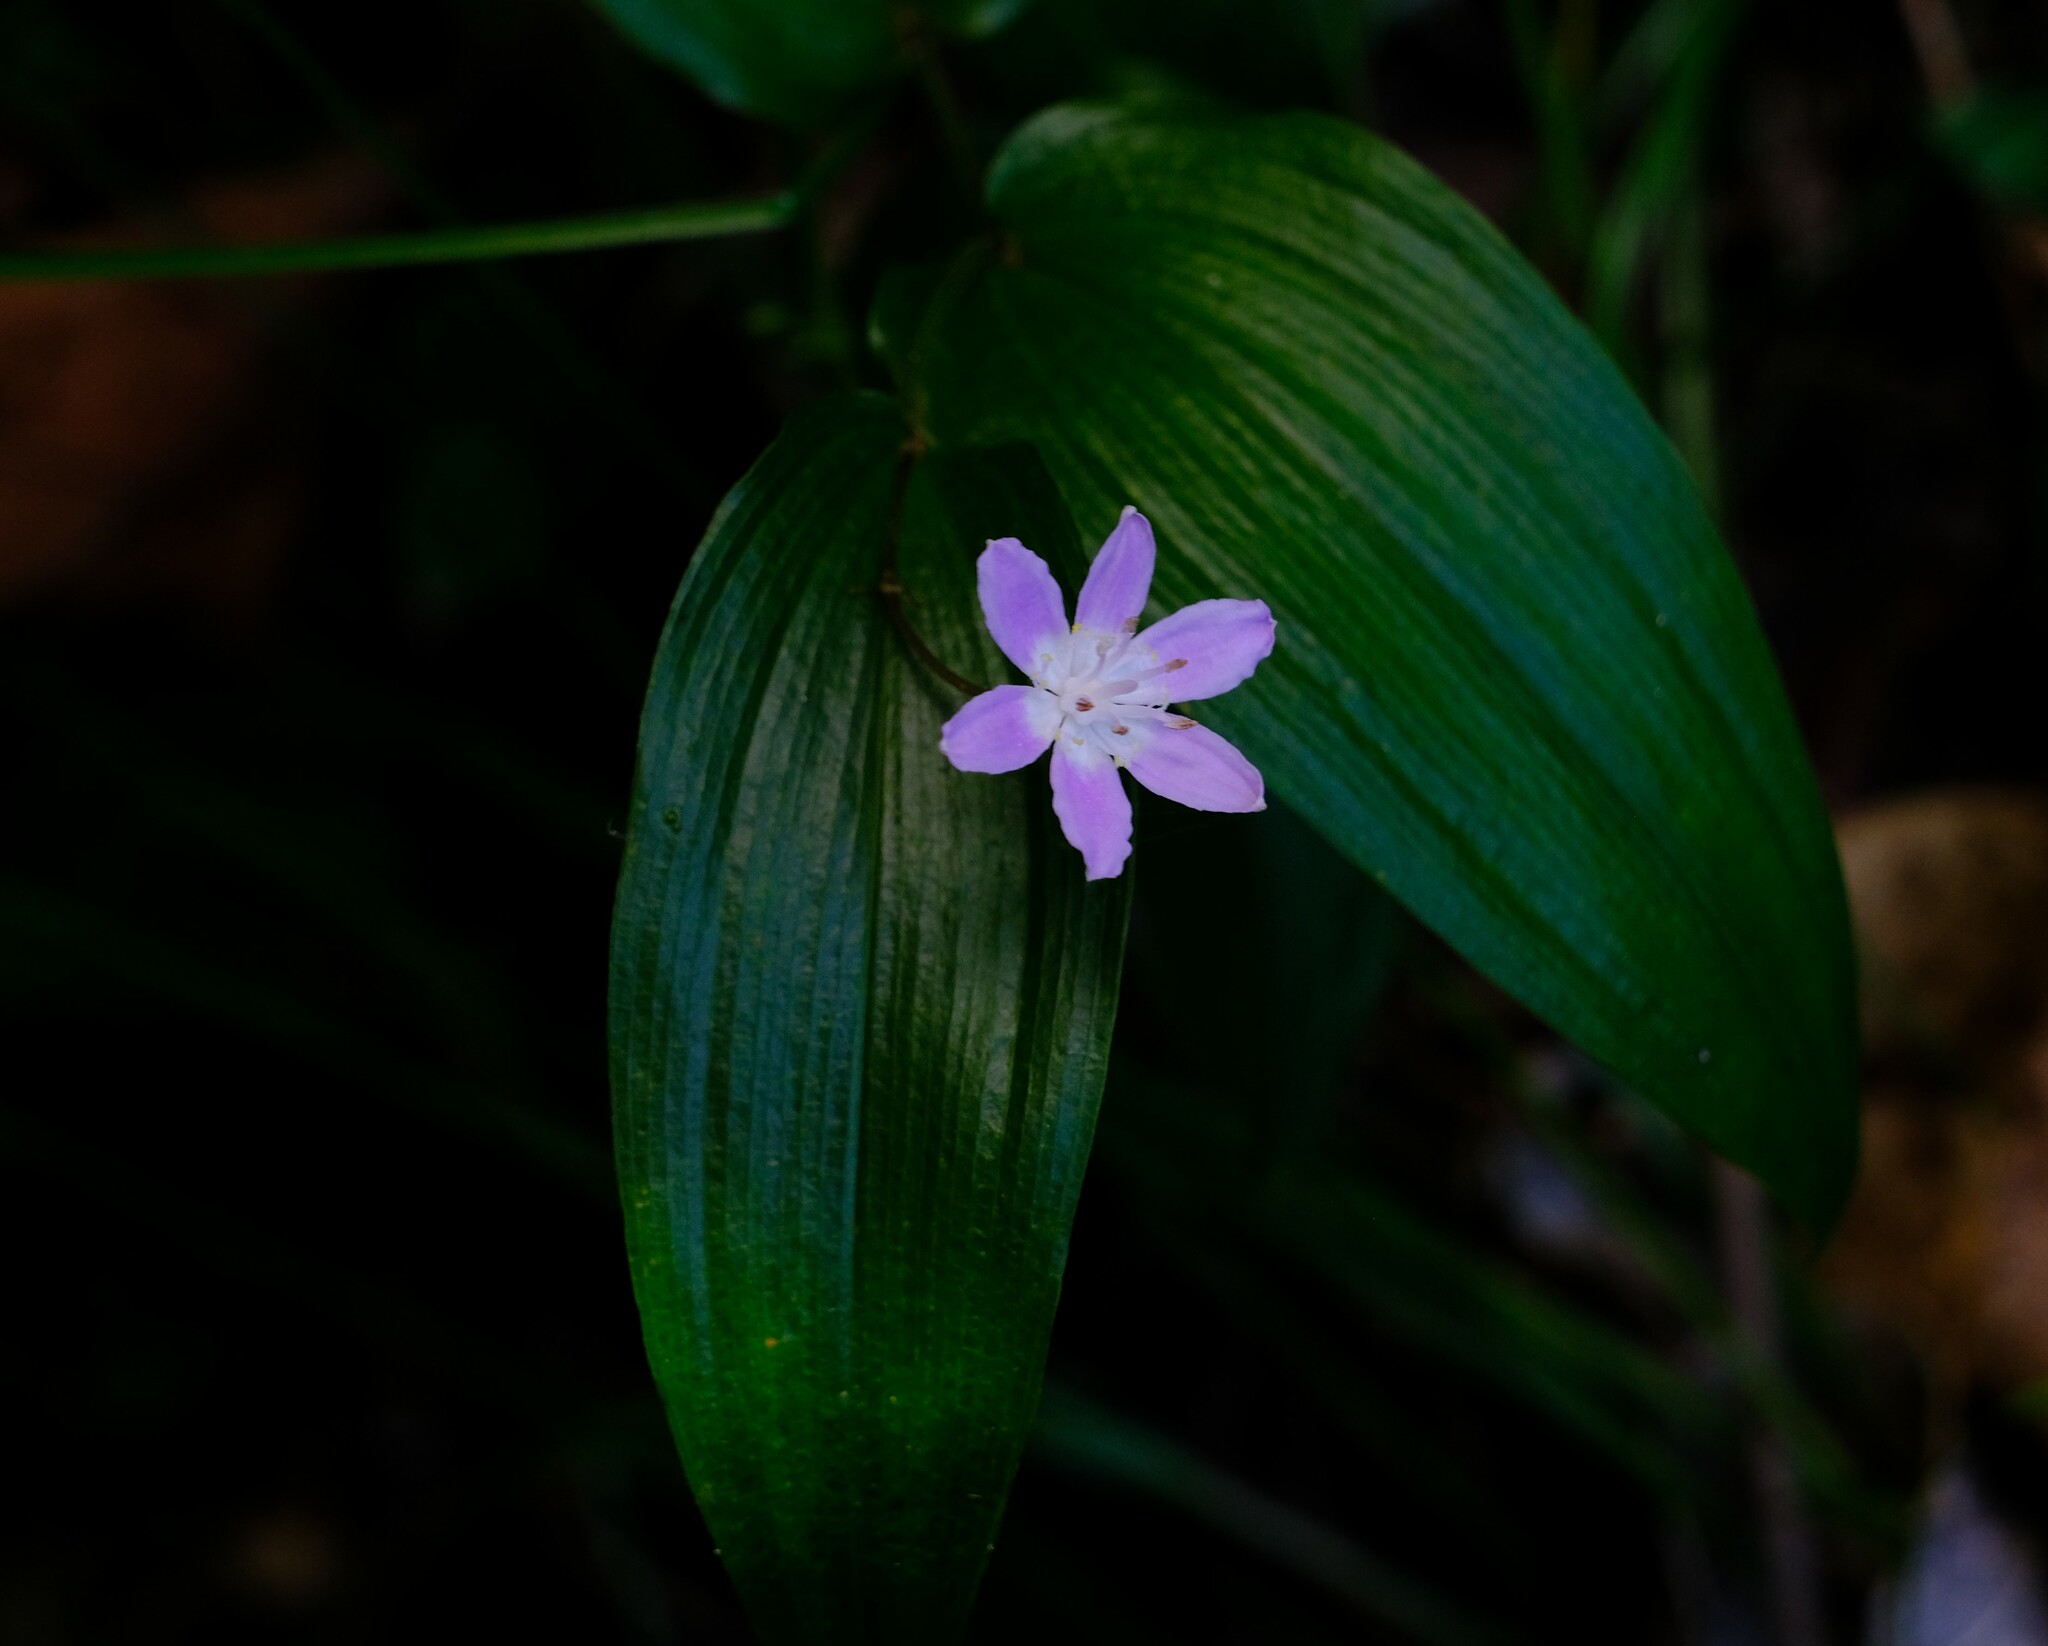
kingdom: Plantae
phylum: Tracheophyta
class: Liliopsida
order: Liliales
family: Colchicaceae
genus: Tripladenia
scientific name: Tripladenia cunninghamii
